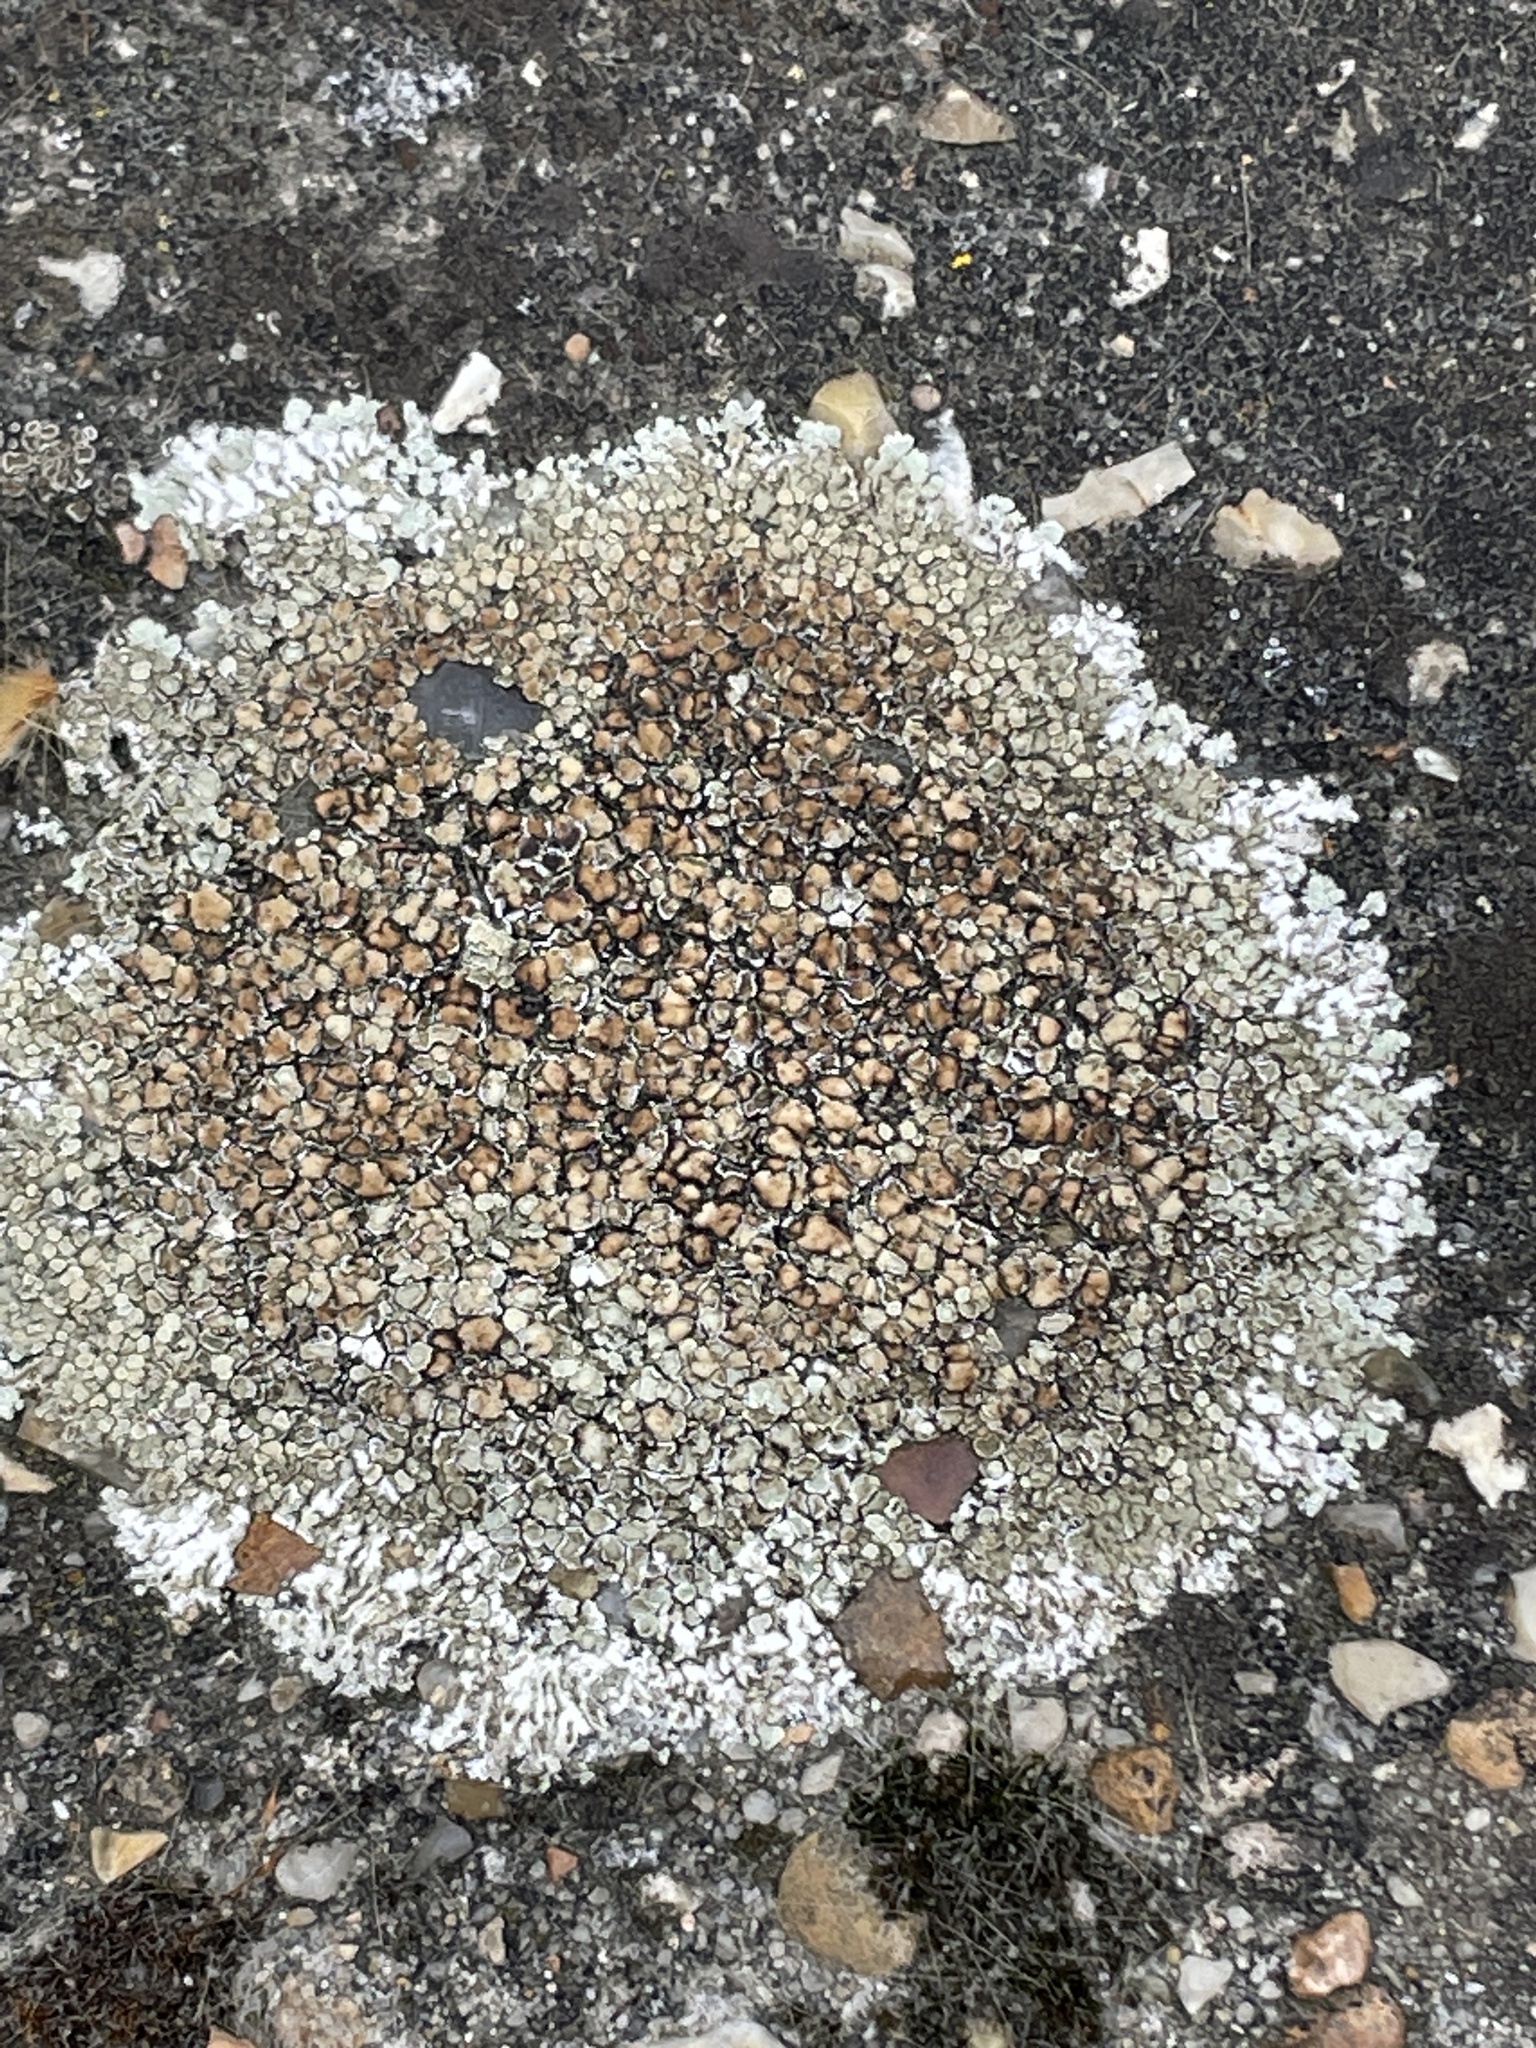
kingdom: Fungi
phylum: Ascomycota
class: Lecanoromycetes
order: Lecanorales
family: Lecanoraceae
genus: Protoparmeliopsis
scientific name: Protoparmeliopsis muralis
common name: Stonewall rim lichen
